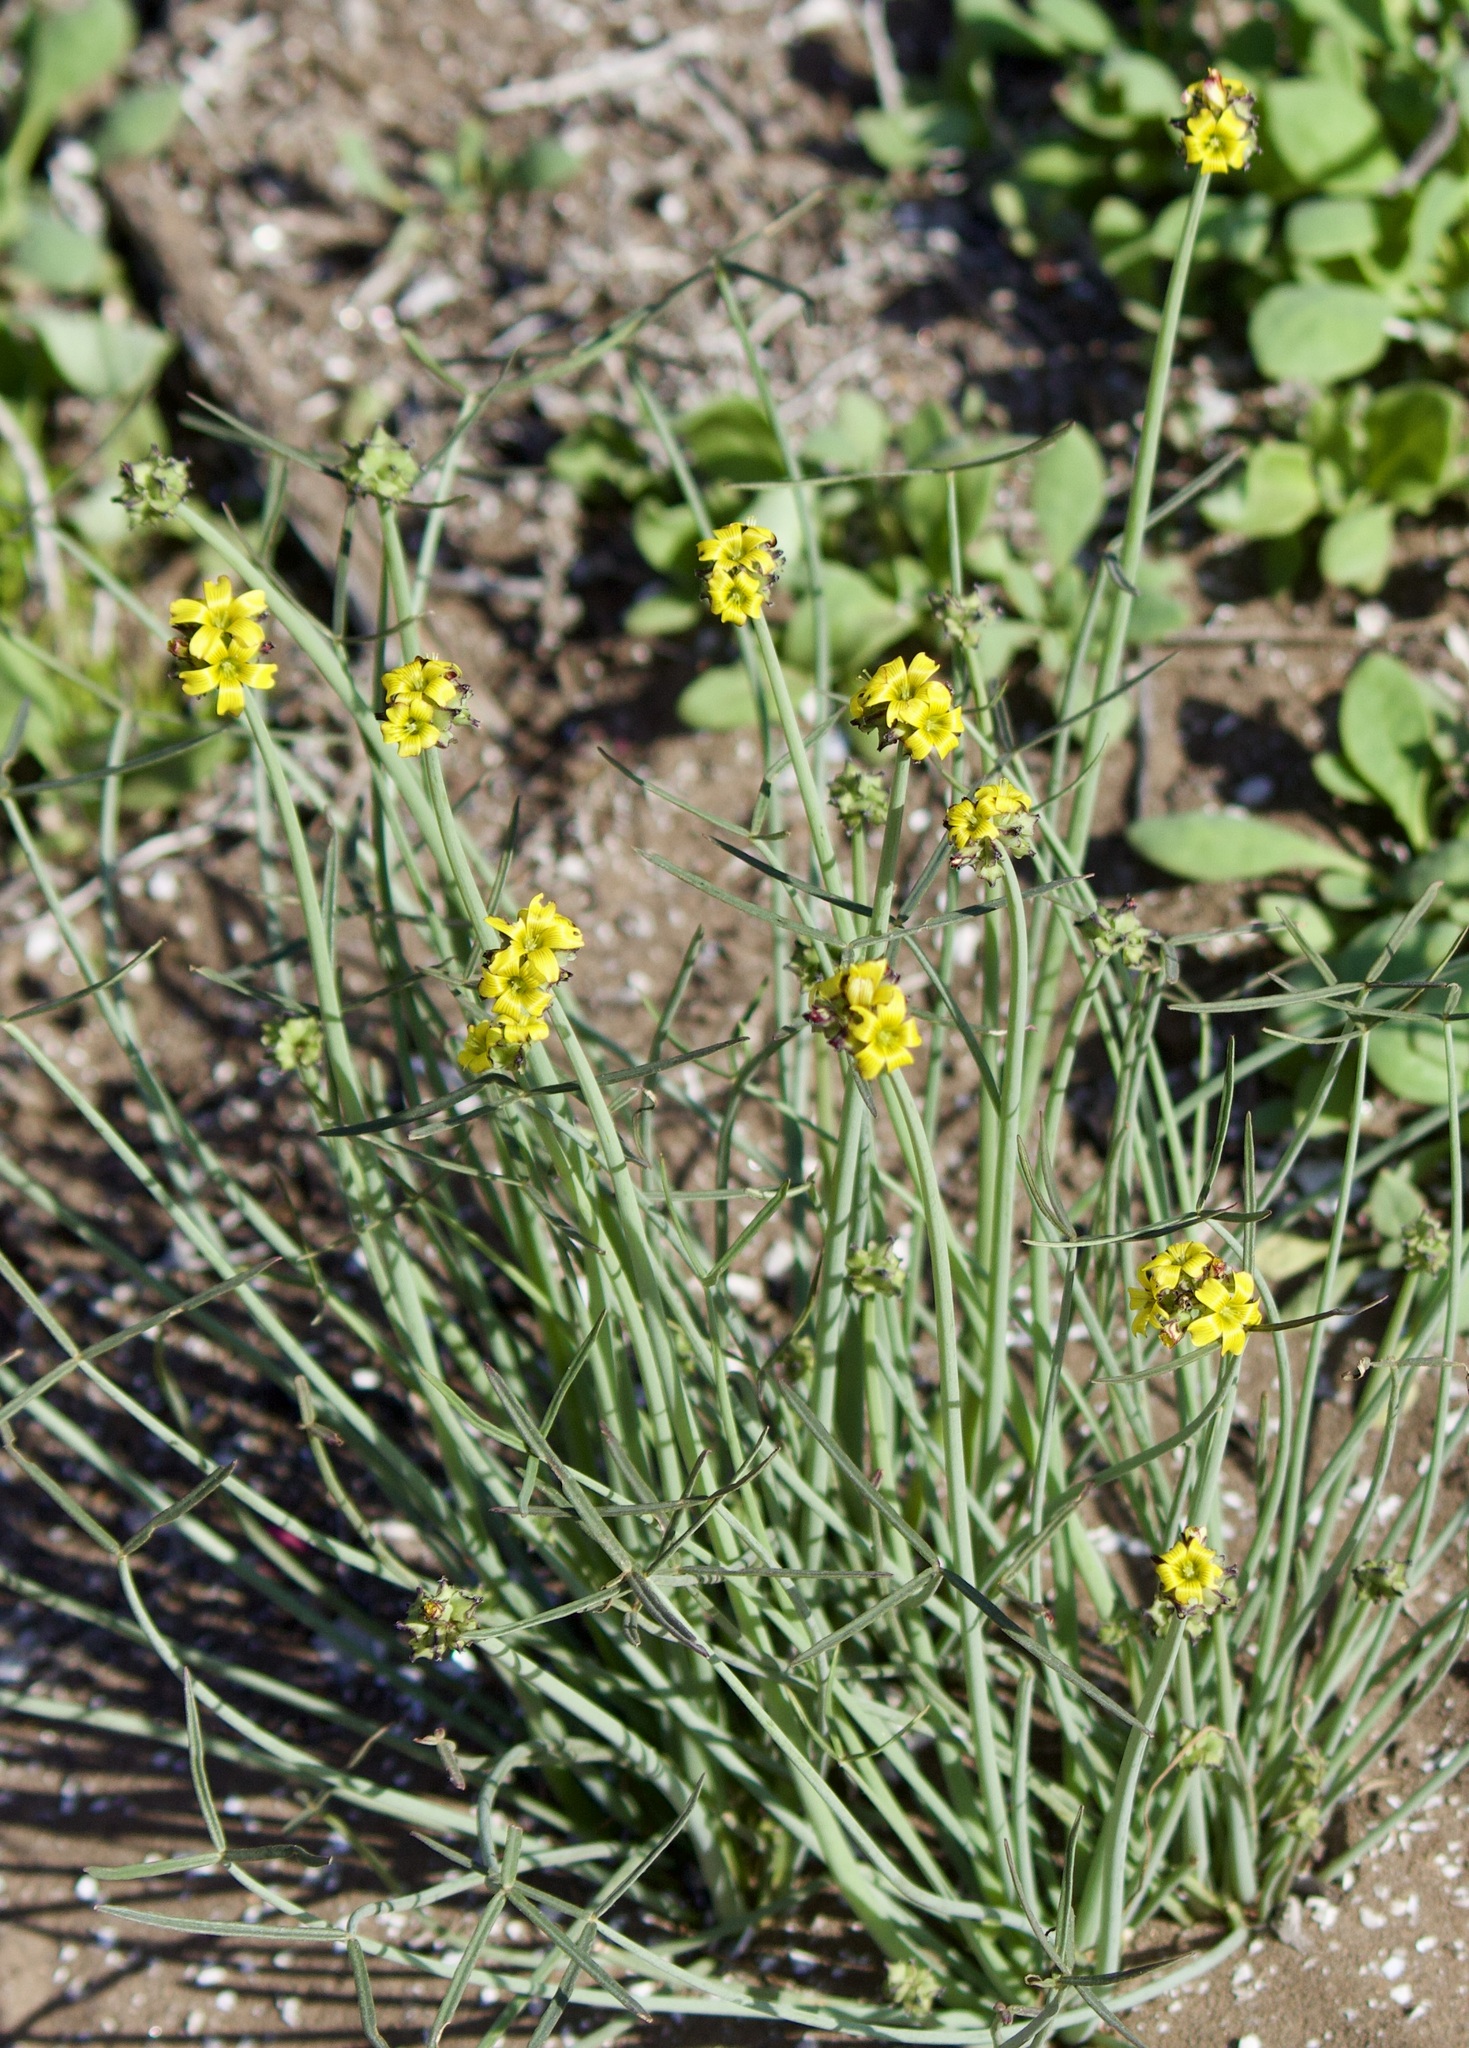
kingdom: Plantae
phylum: Tracheophyta
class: Magnoliopsida
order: Oxalidales
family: Oxalidaceae
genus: Oxalis
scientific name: Oxalis tortuosa
